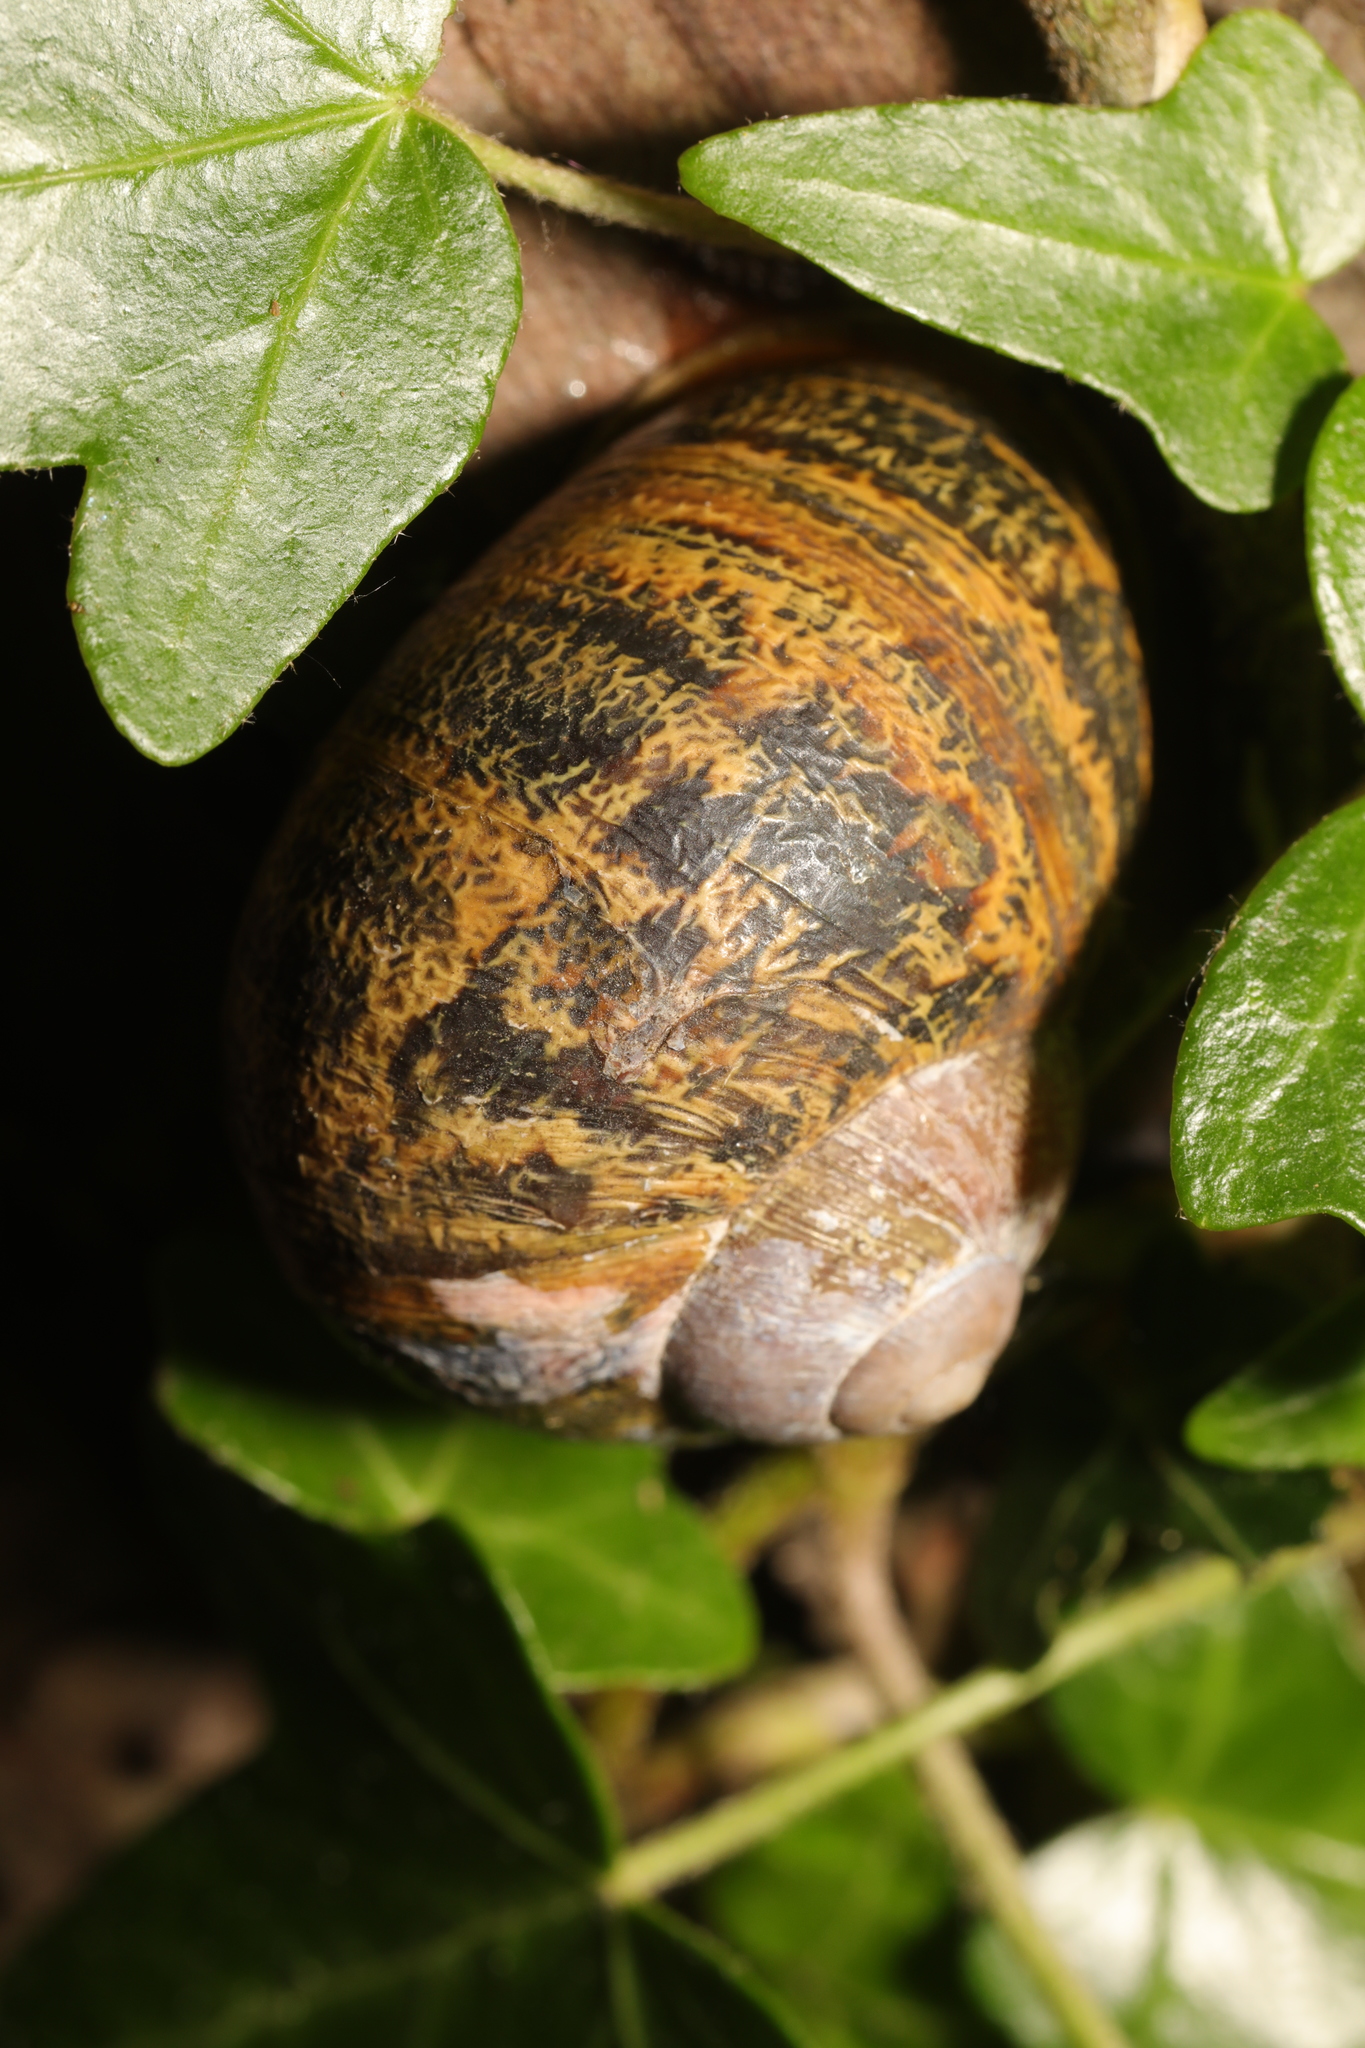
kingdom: Animalia
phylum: Mollusca
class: Gastropoda
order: Stylommatophora
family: Helicidae
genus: Cornu
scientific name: Cornu aspersum
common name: Brown garden snail
